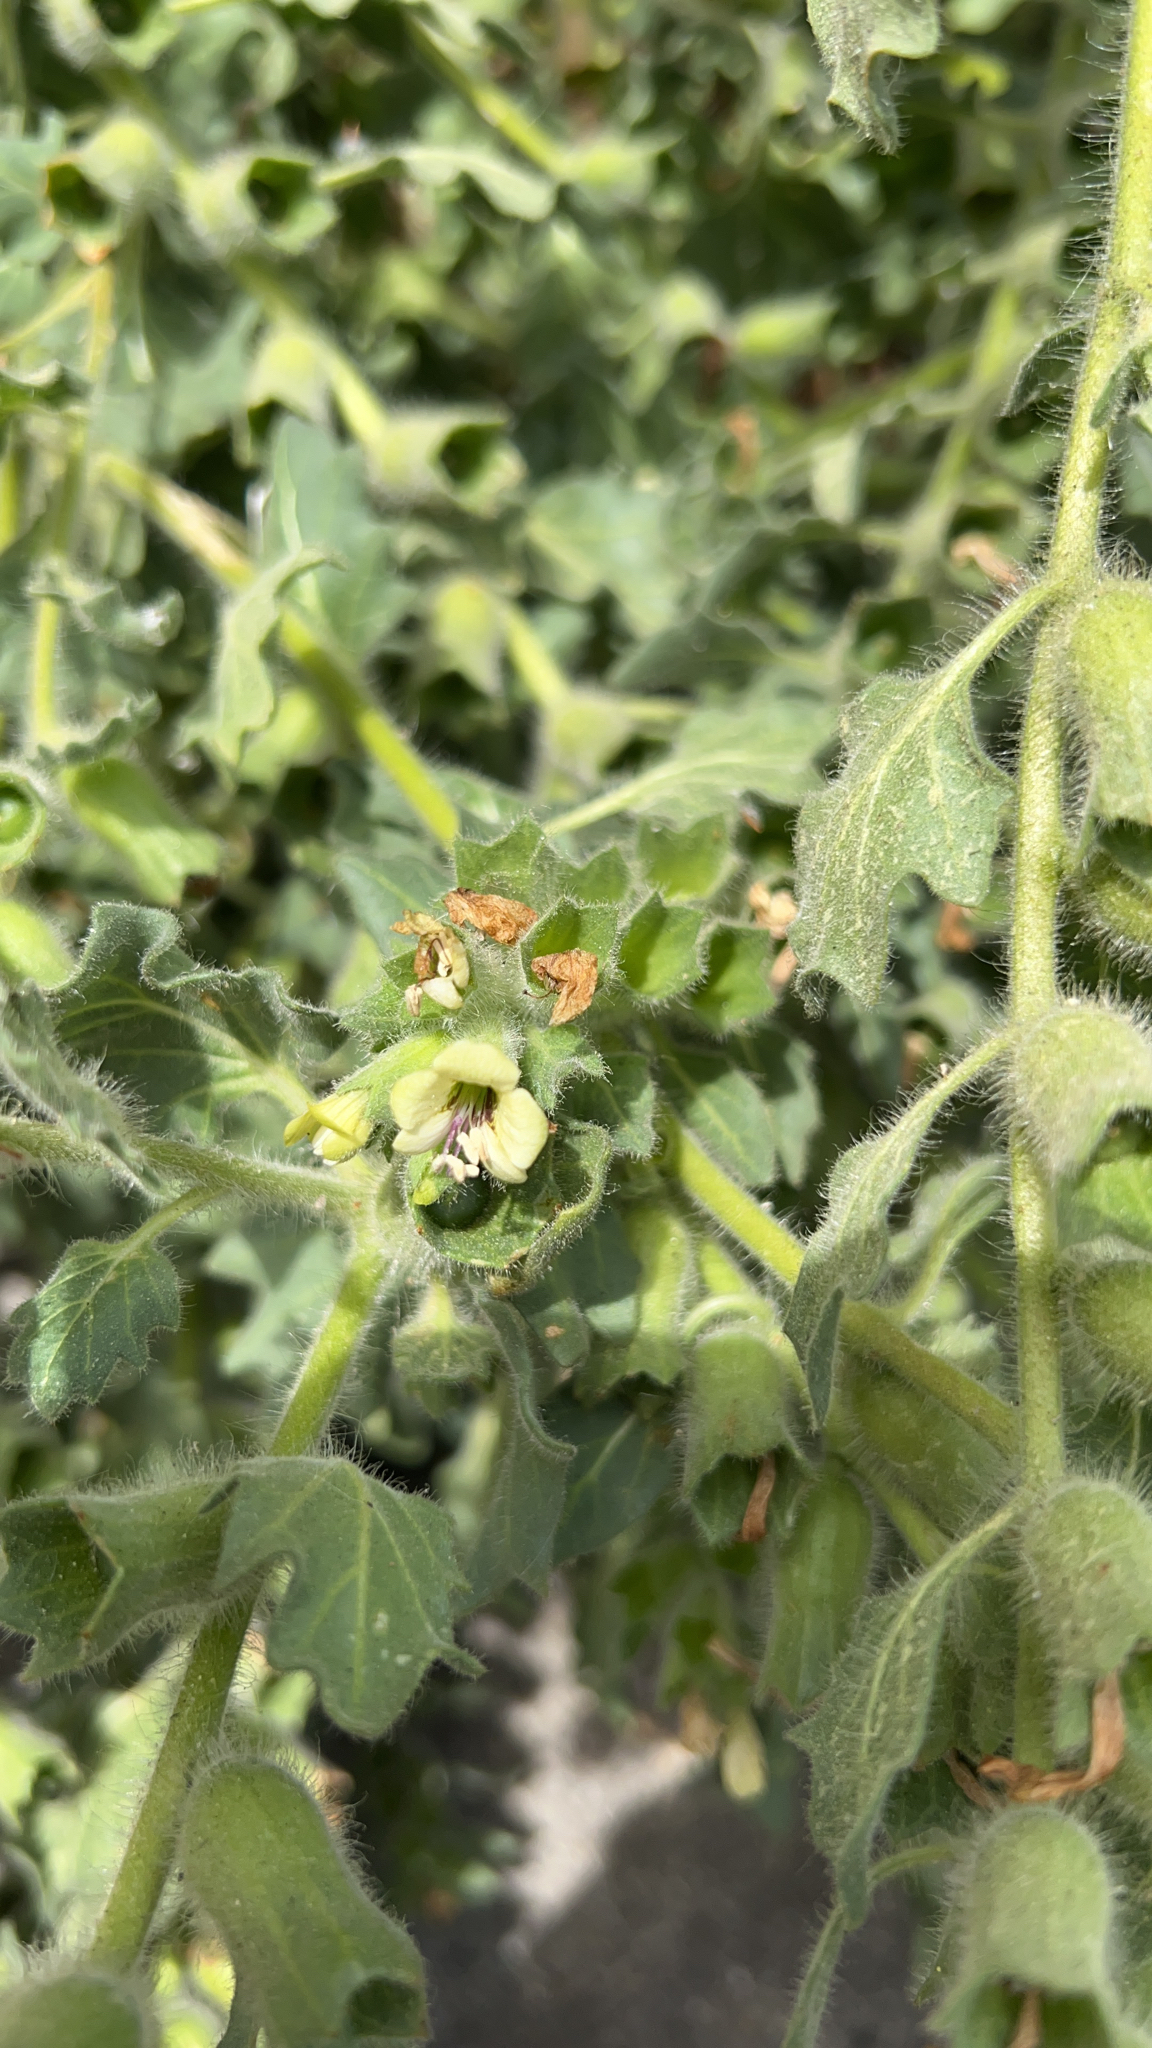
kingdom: Plantae
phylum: Tracheophyta
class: Magnoliopsida
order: Solanales
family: Solanaceae
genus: Hyoscyamus
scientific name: Hyoscyamus albus
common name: White henbane
